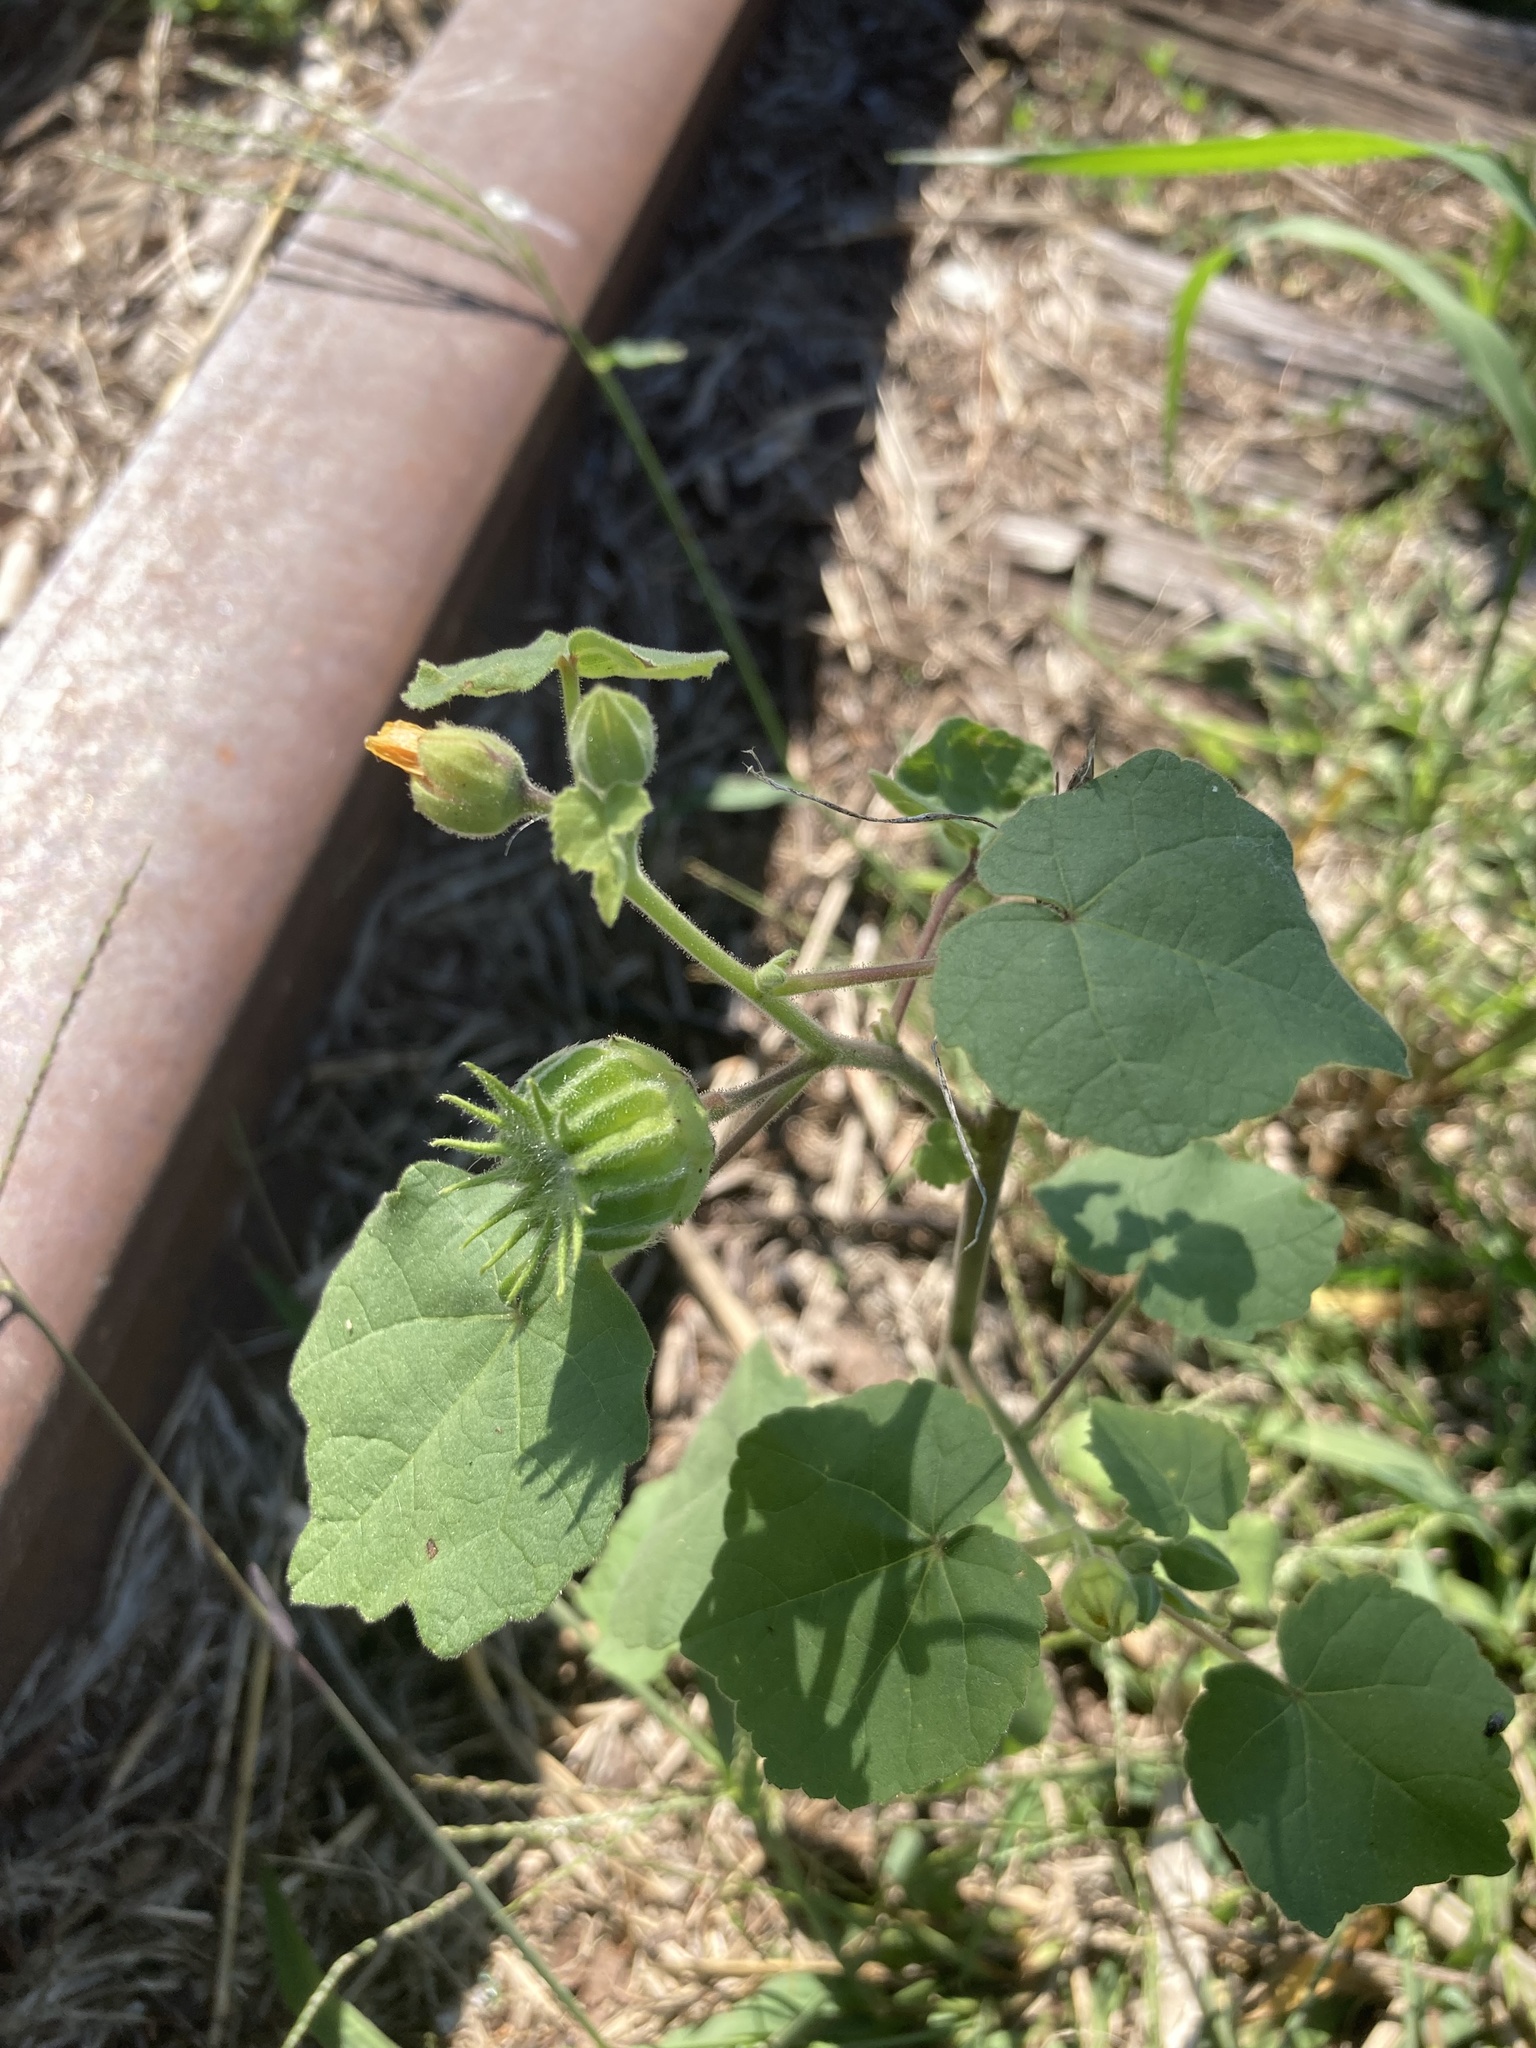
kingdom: Plantae
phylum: Tracheophyta
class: Magnoliopsida
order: Malvales
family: Malvaceae
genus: Abutilon
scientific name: Abutilon theophrasti
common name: Velvetleaf
